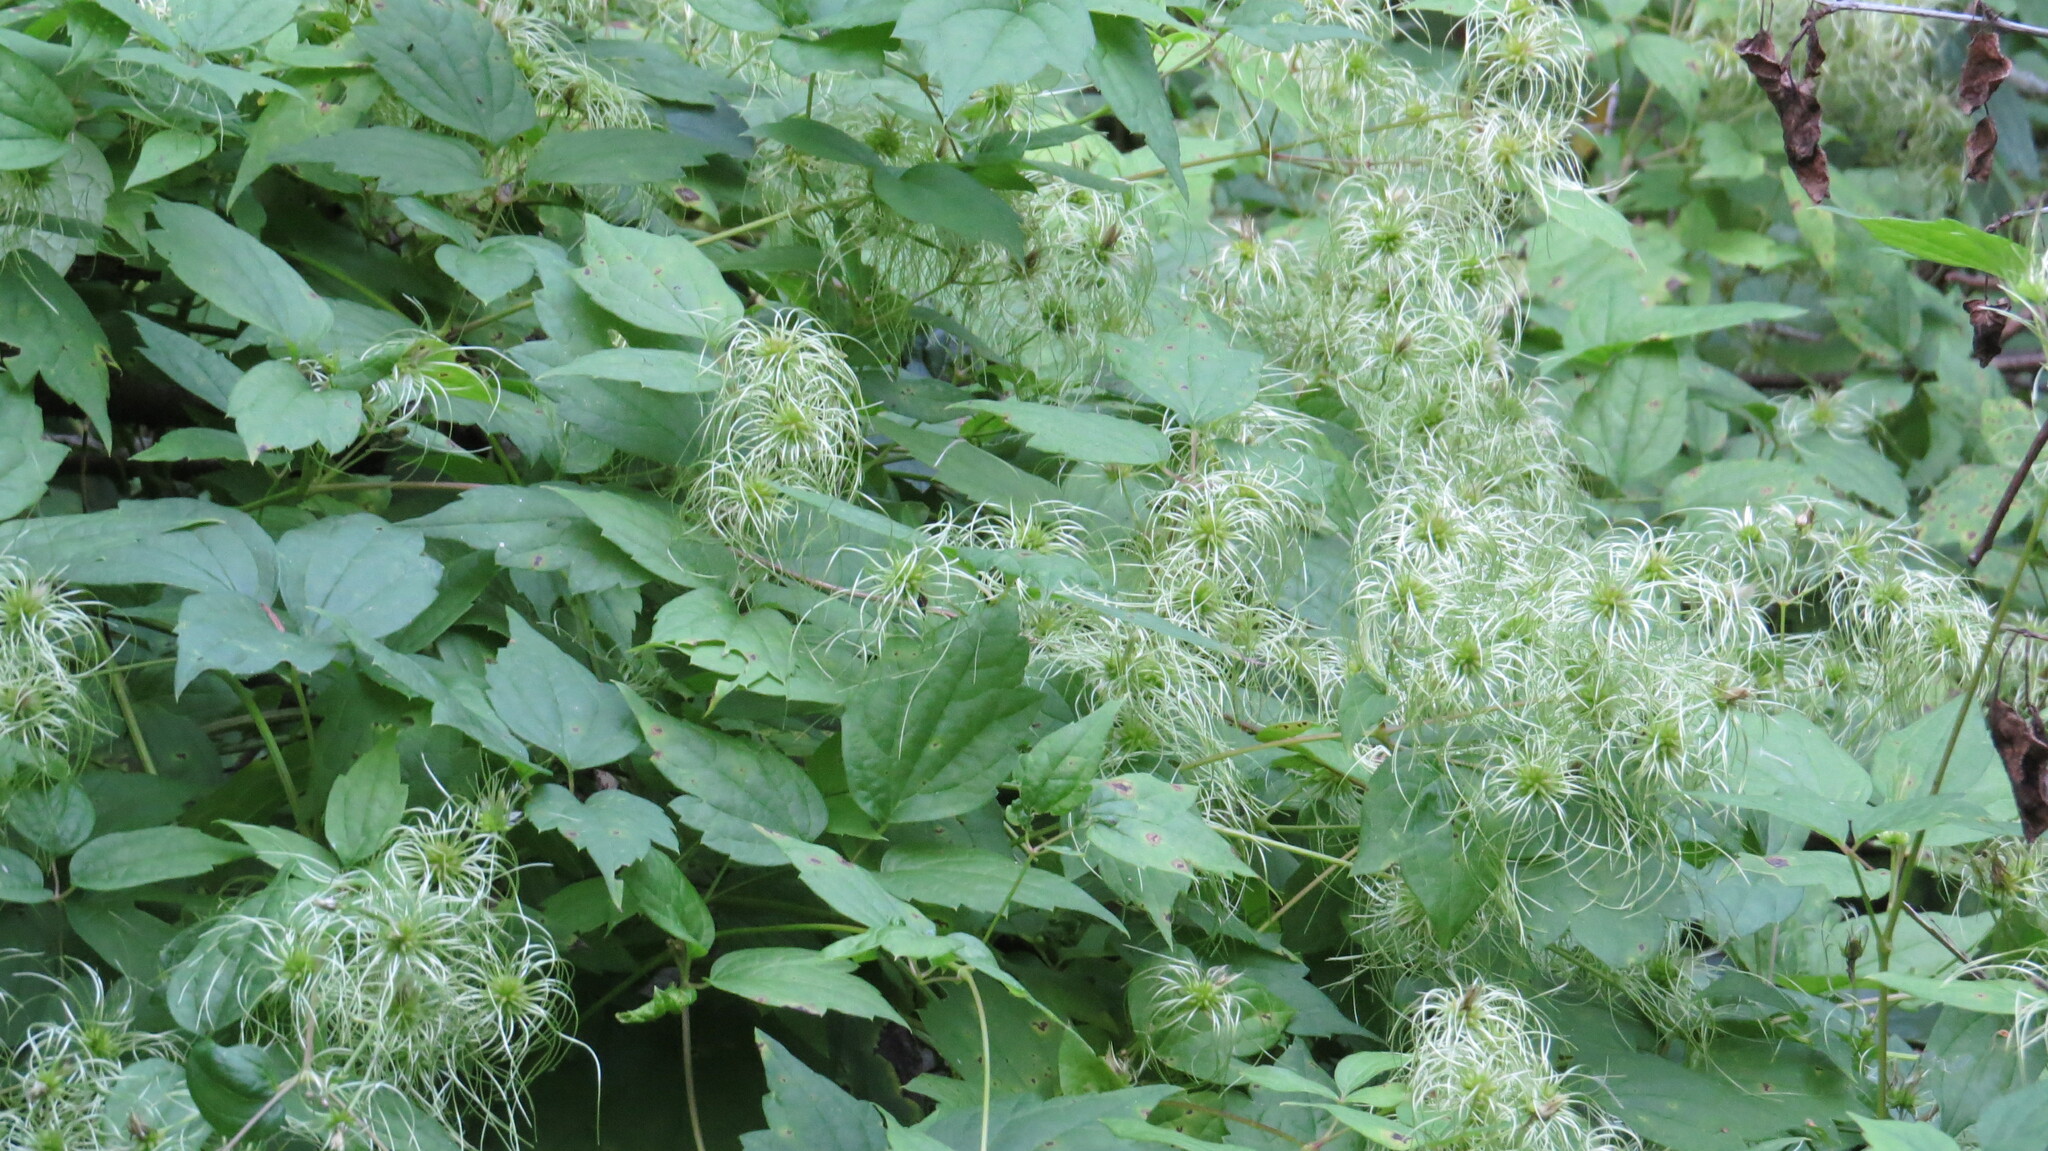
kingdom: Plantae
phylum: Tracheophyta
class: Magnoliopsida
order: Ranunculales
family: Ranunculaceae
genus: Clematis
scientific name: Clematis virginiana
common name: Virgin's-bower
